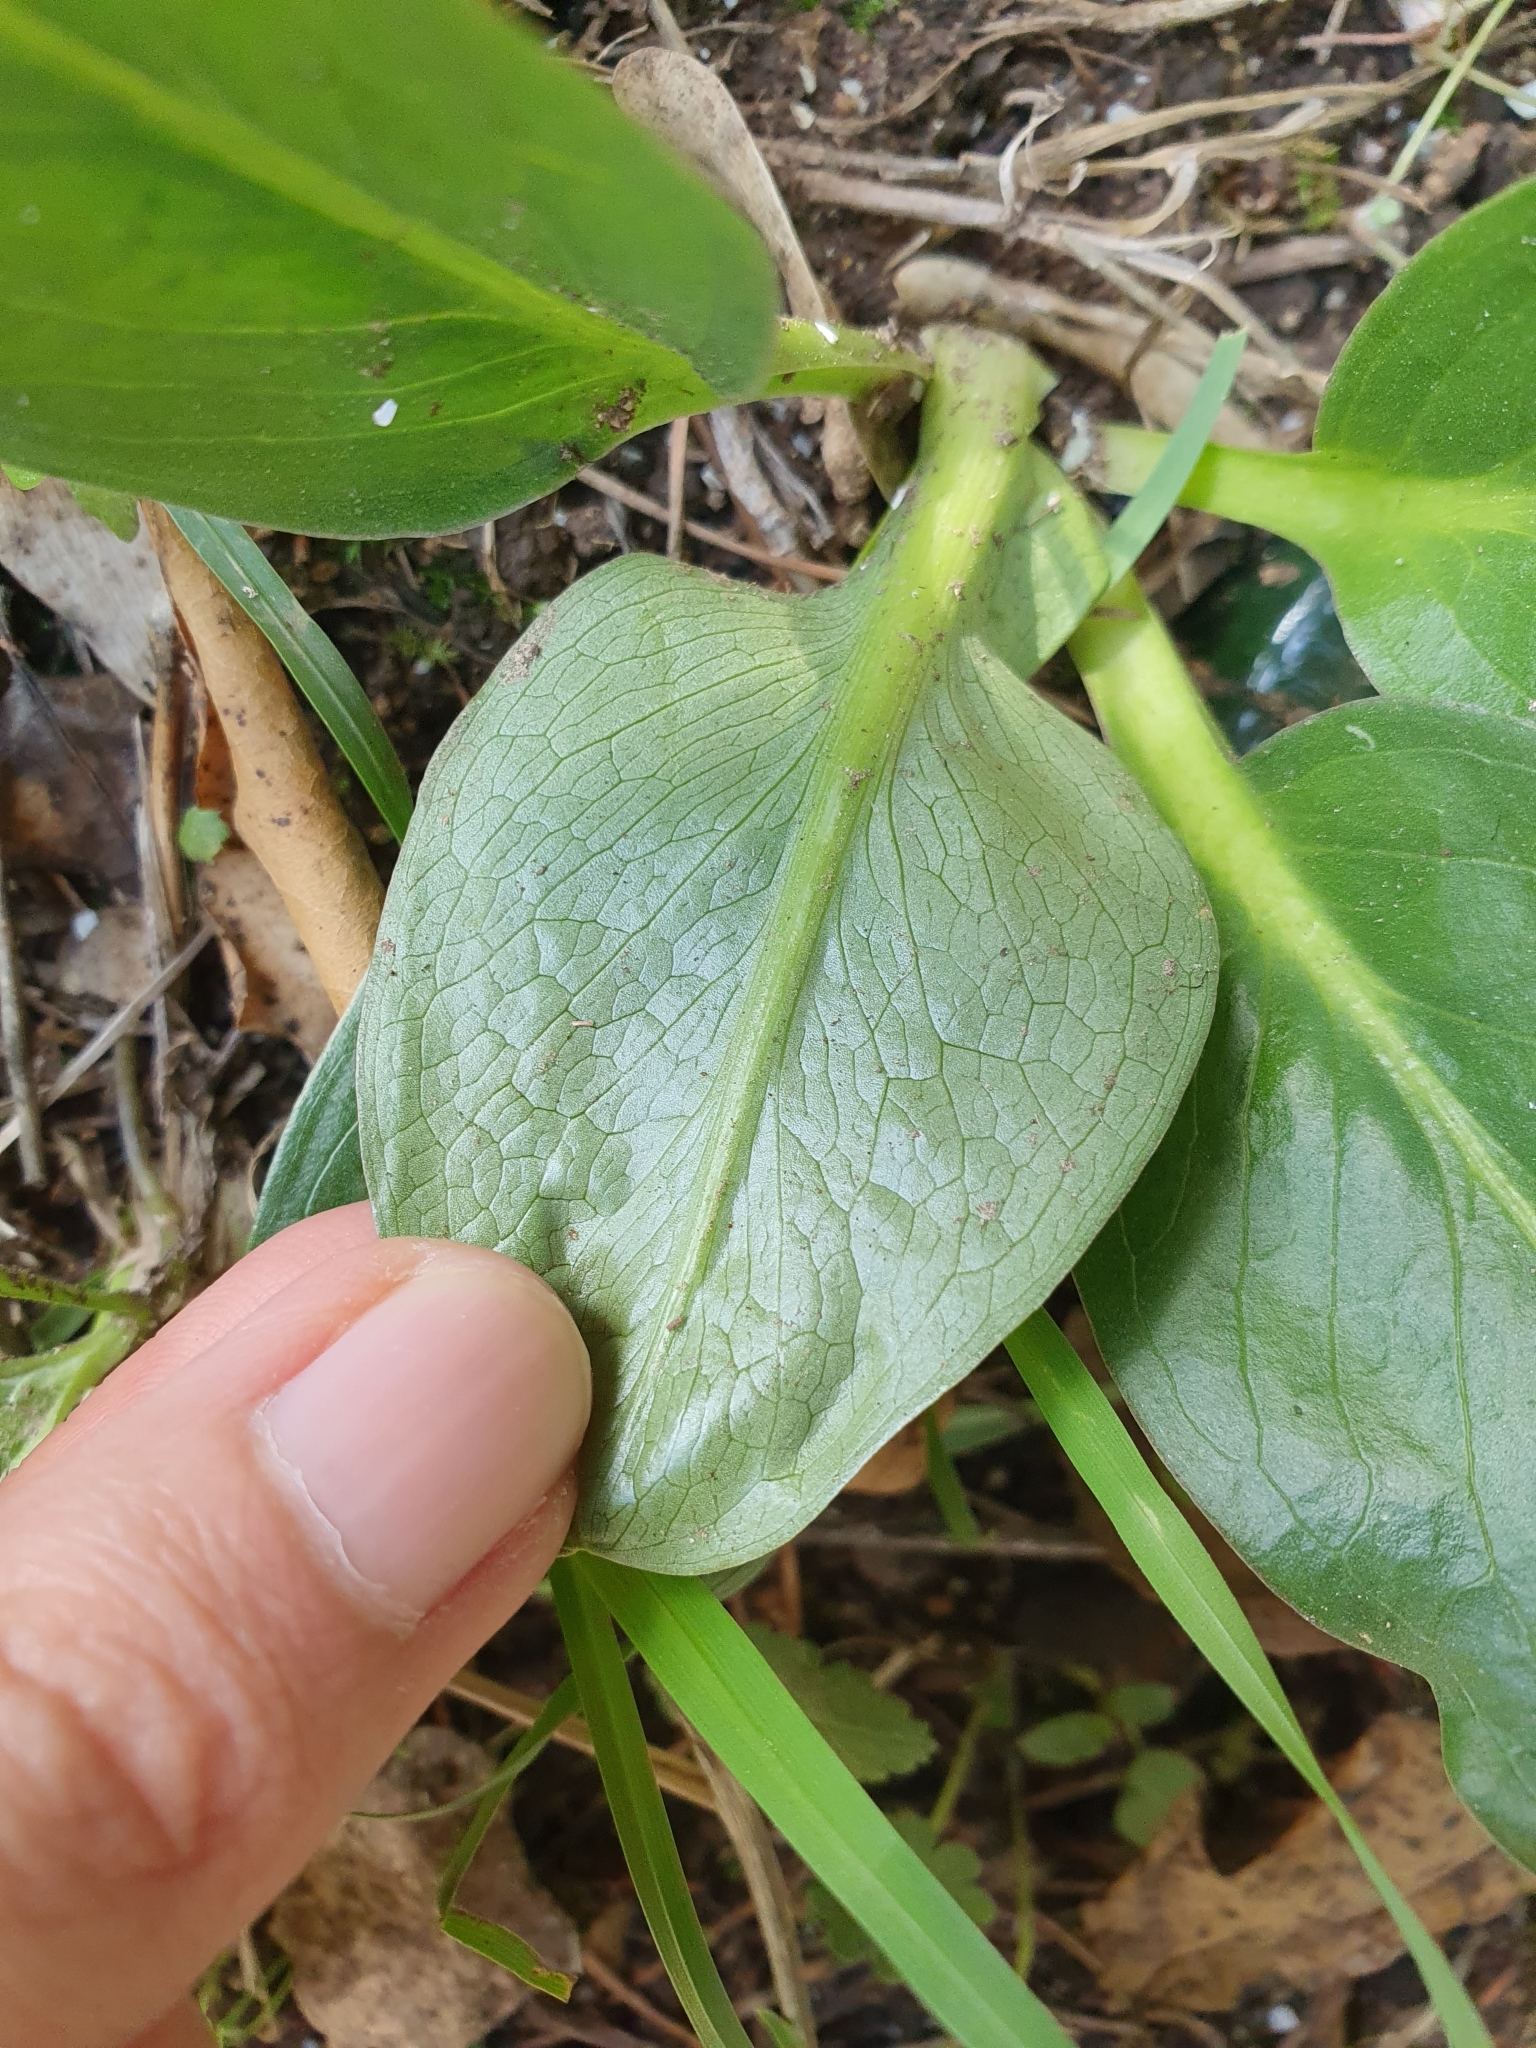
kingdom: Plantae
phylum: Tracheophyta
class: Liliopsida
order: Alismatales
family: Araceae
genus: Biarum
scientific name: Biarum dispar
